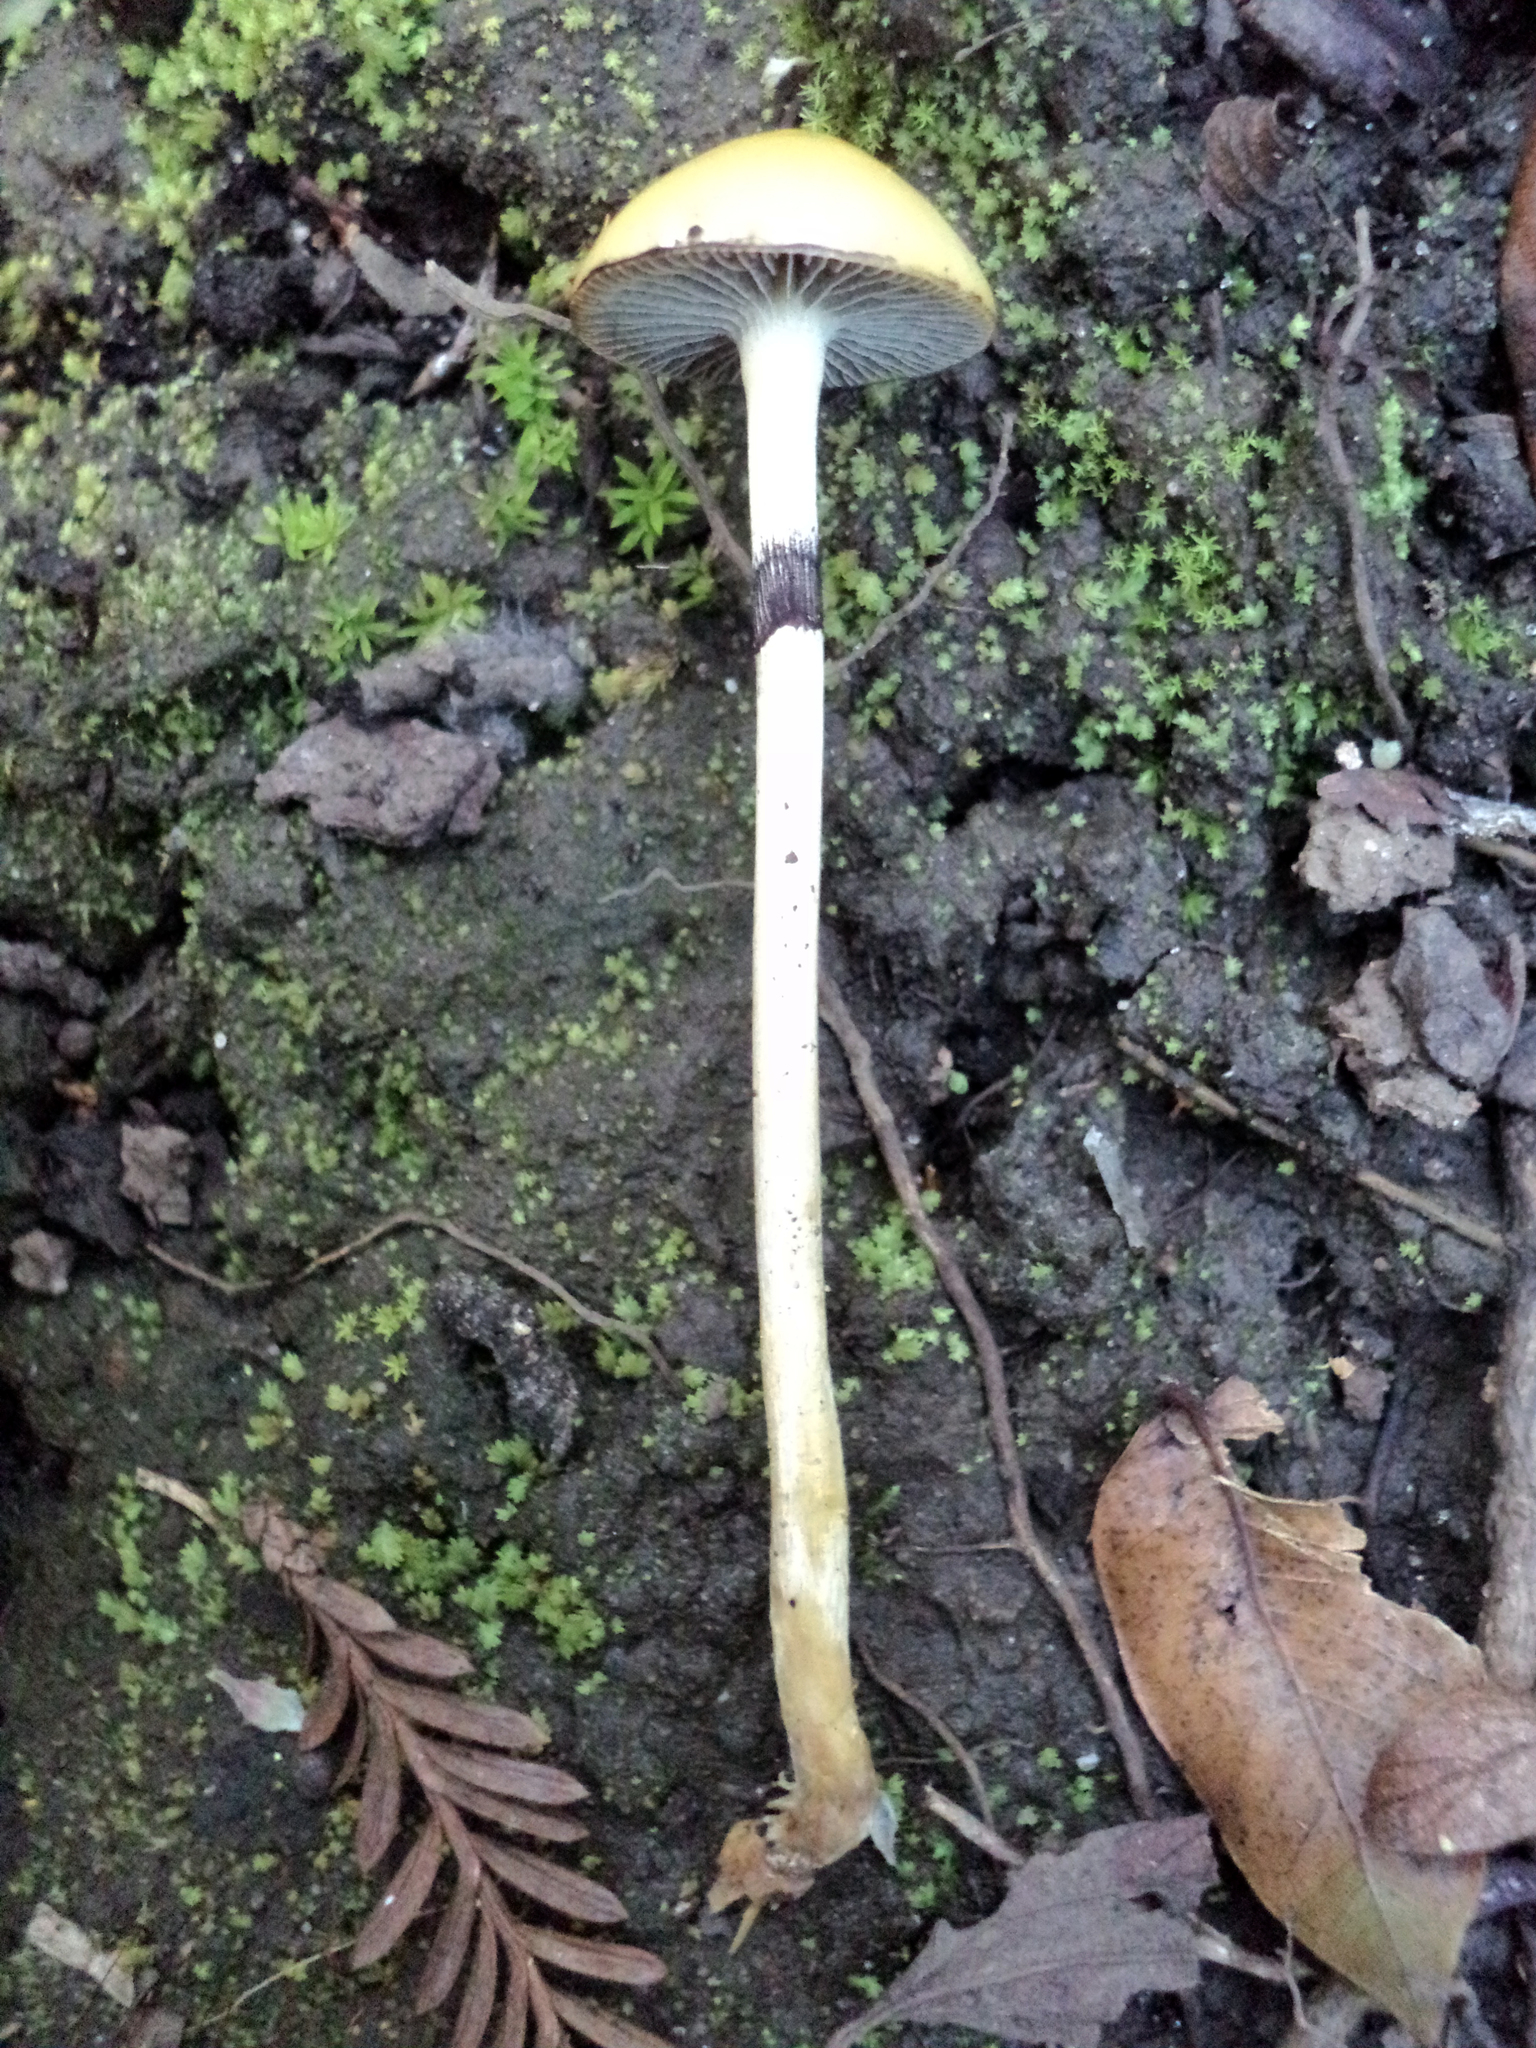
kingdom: Fungi
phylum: Basidiomycota
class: Agaricomycetes
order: Agaricales
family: Strophariaceae
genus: Protostropharia
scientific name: Protostropharia semiglobata
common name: Dung roundhead
